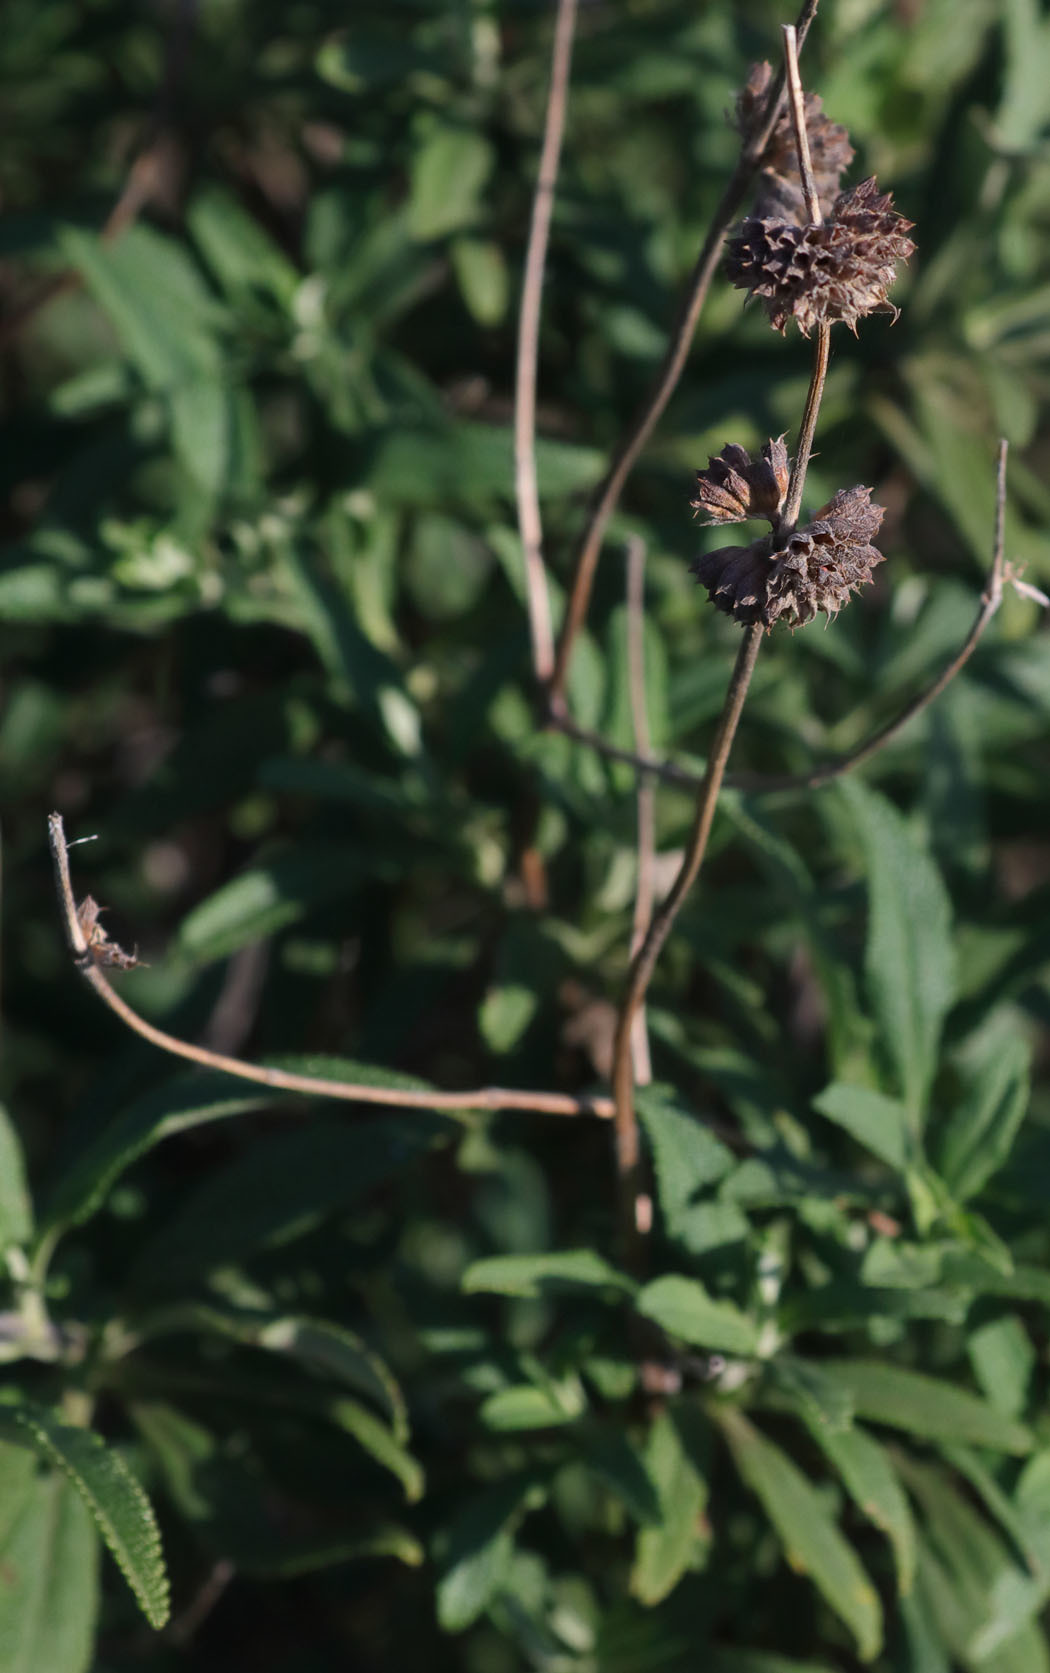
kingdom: Plantae
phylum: Tracheophyta
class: Magnoliopsida
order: Lamiales
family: Lamiaceae
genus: Salvia
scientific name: Salvia mellifera
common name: Black sage
